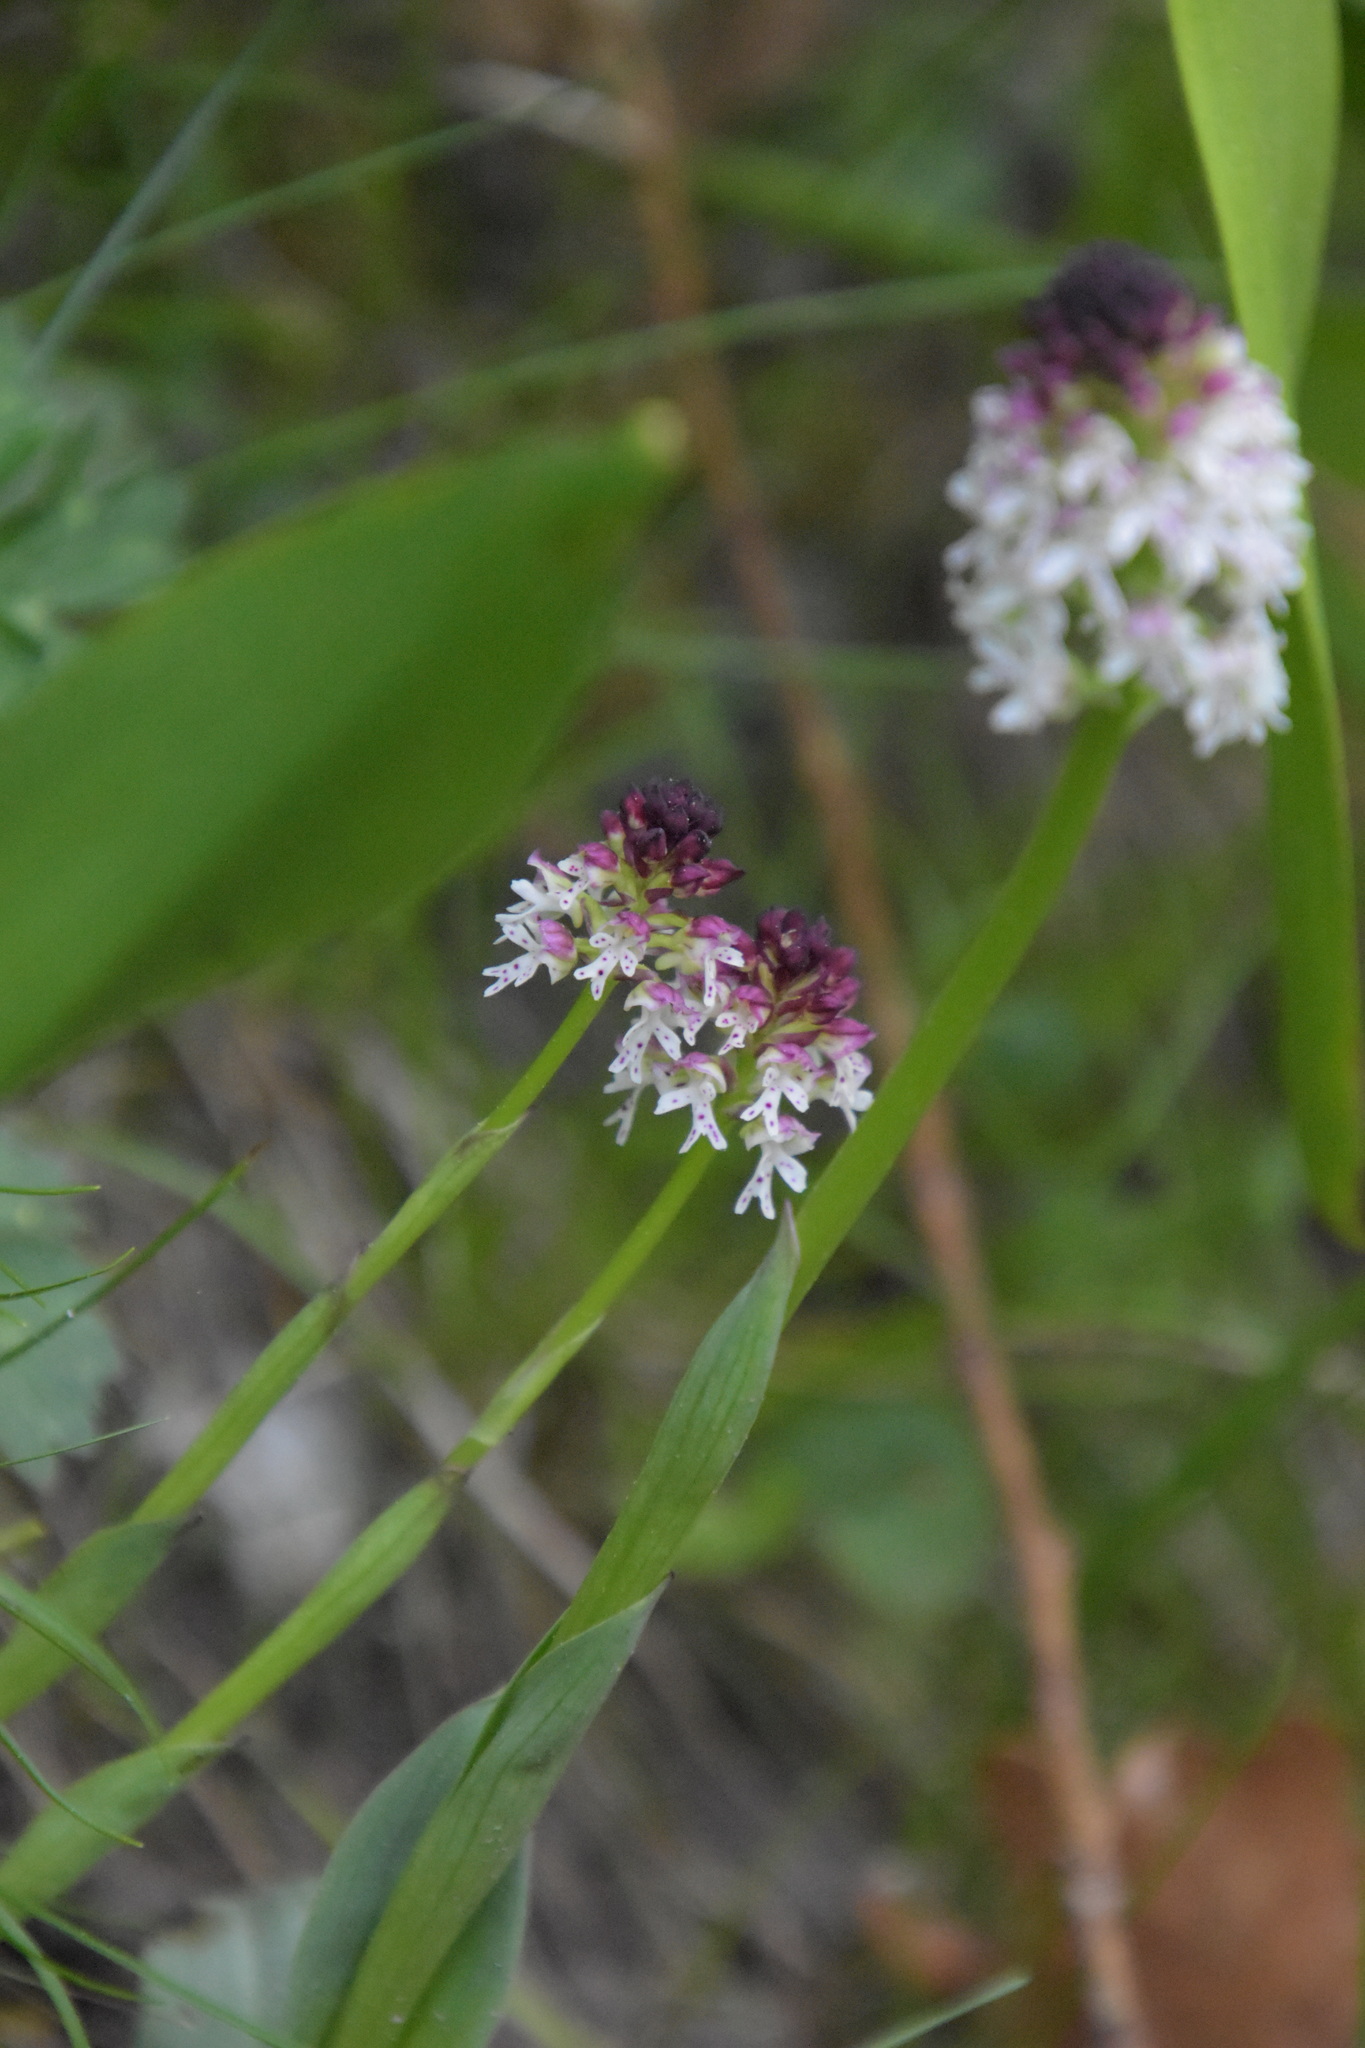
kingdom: Plantae
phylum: Tracheophyta
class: Liliopsida
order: Asparagales
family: Orchidaceae
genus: Neotinea
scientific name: Neotinea ustulata
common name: Burnt orchid
